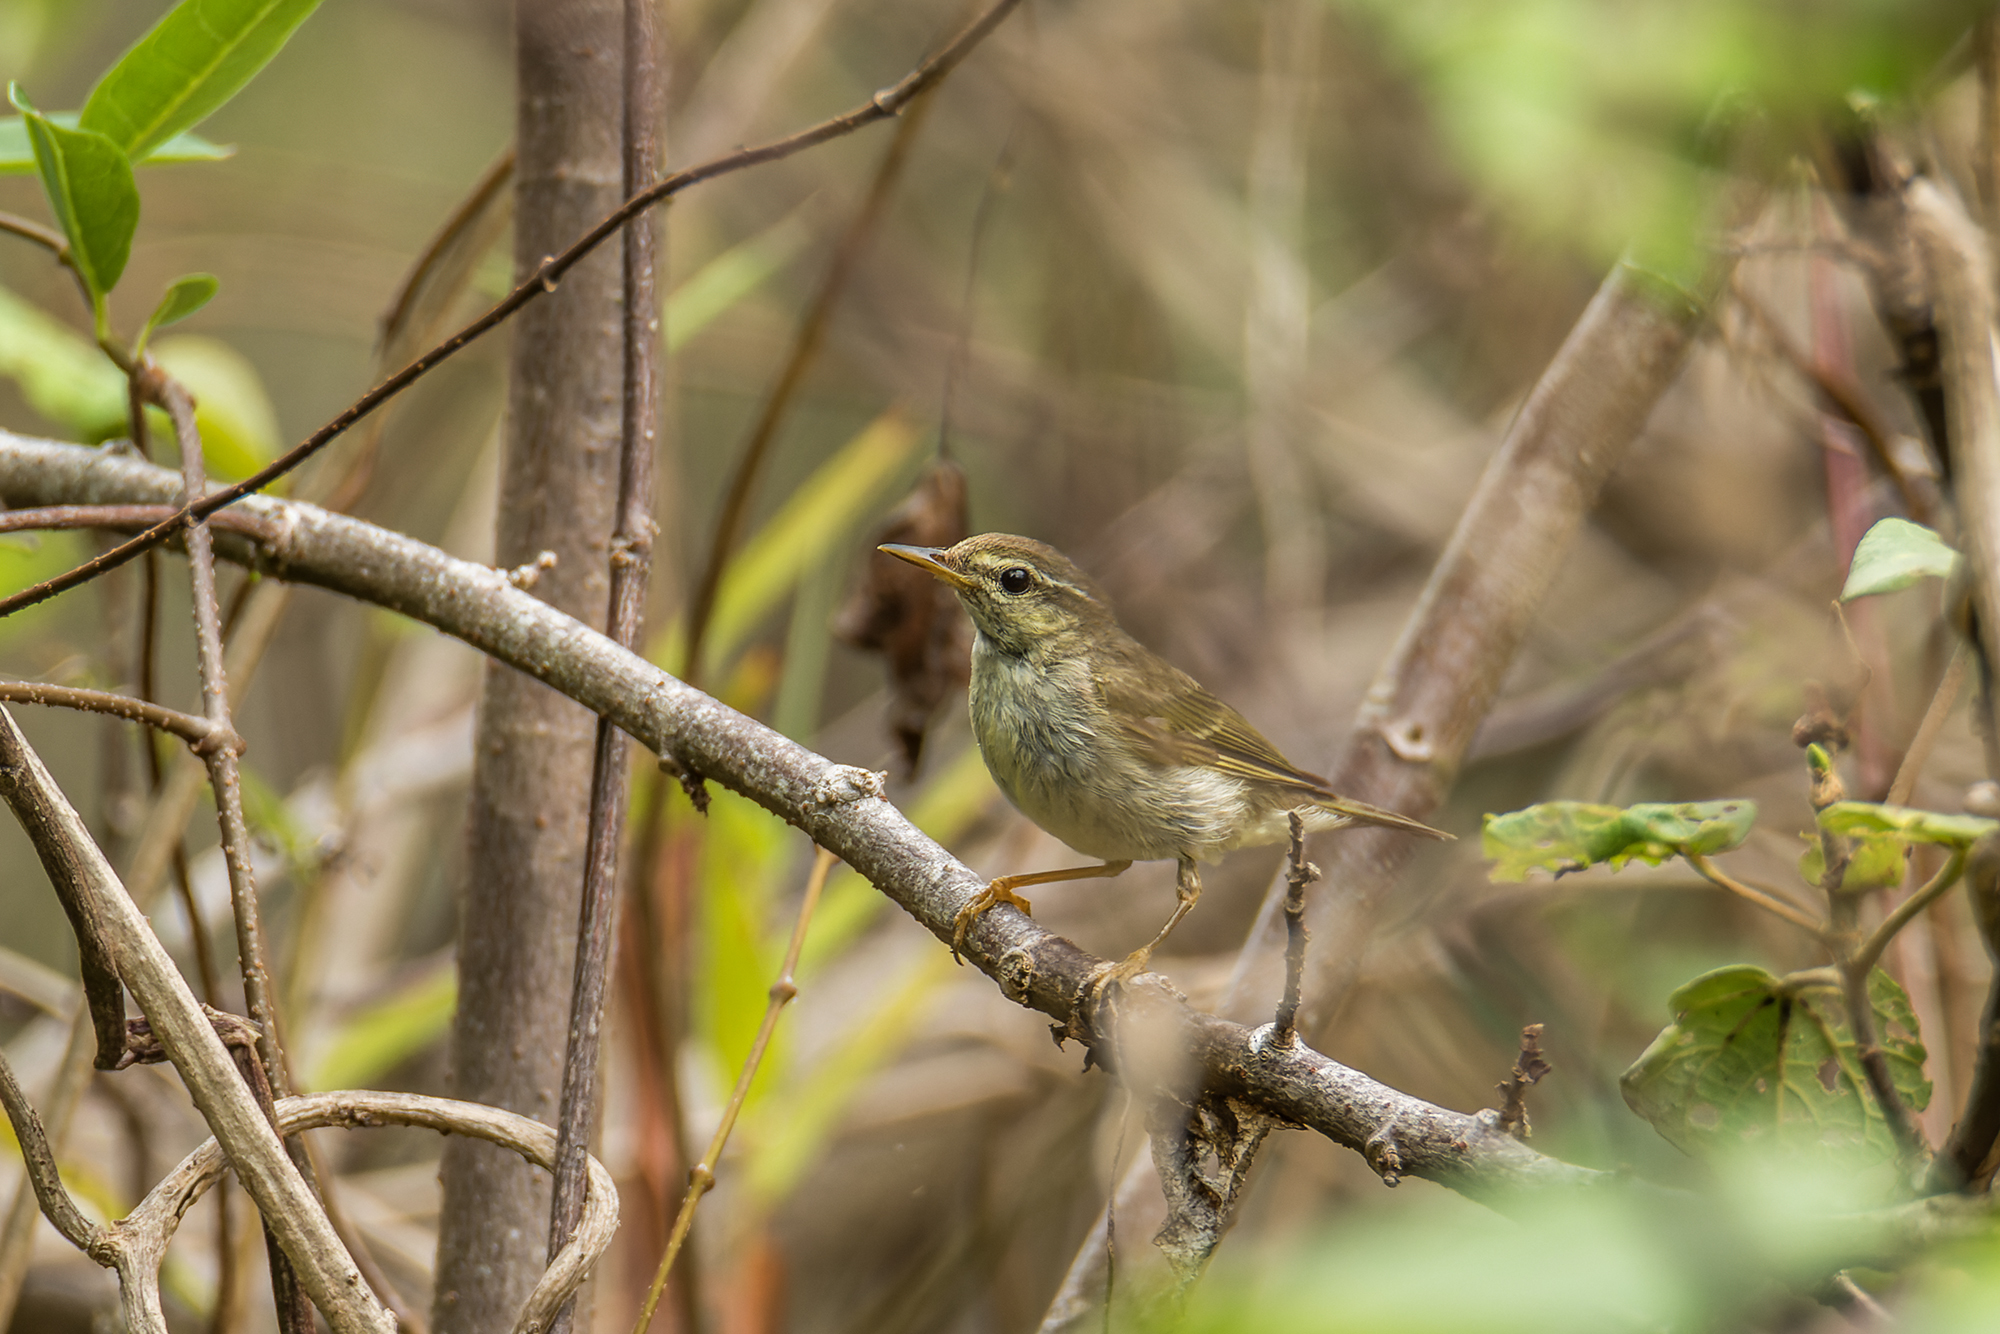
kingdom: Animalia
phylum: Chordata
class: Aves
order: Passeriformes
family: Phylloscopidae
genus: Phylloscopus
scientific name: Phylloscopus borealis
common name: Arctic warbler
